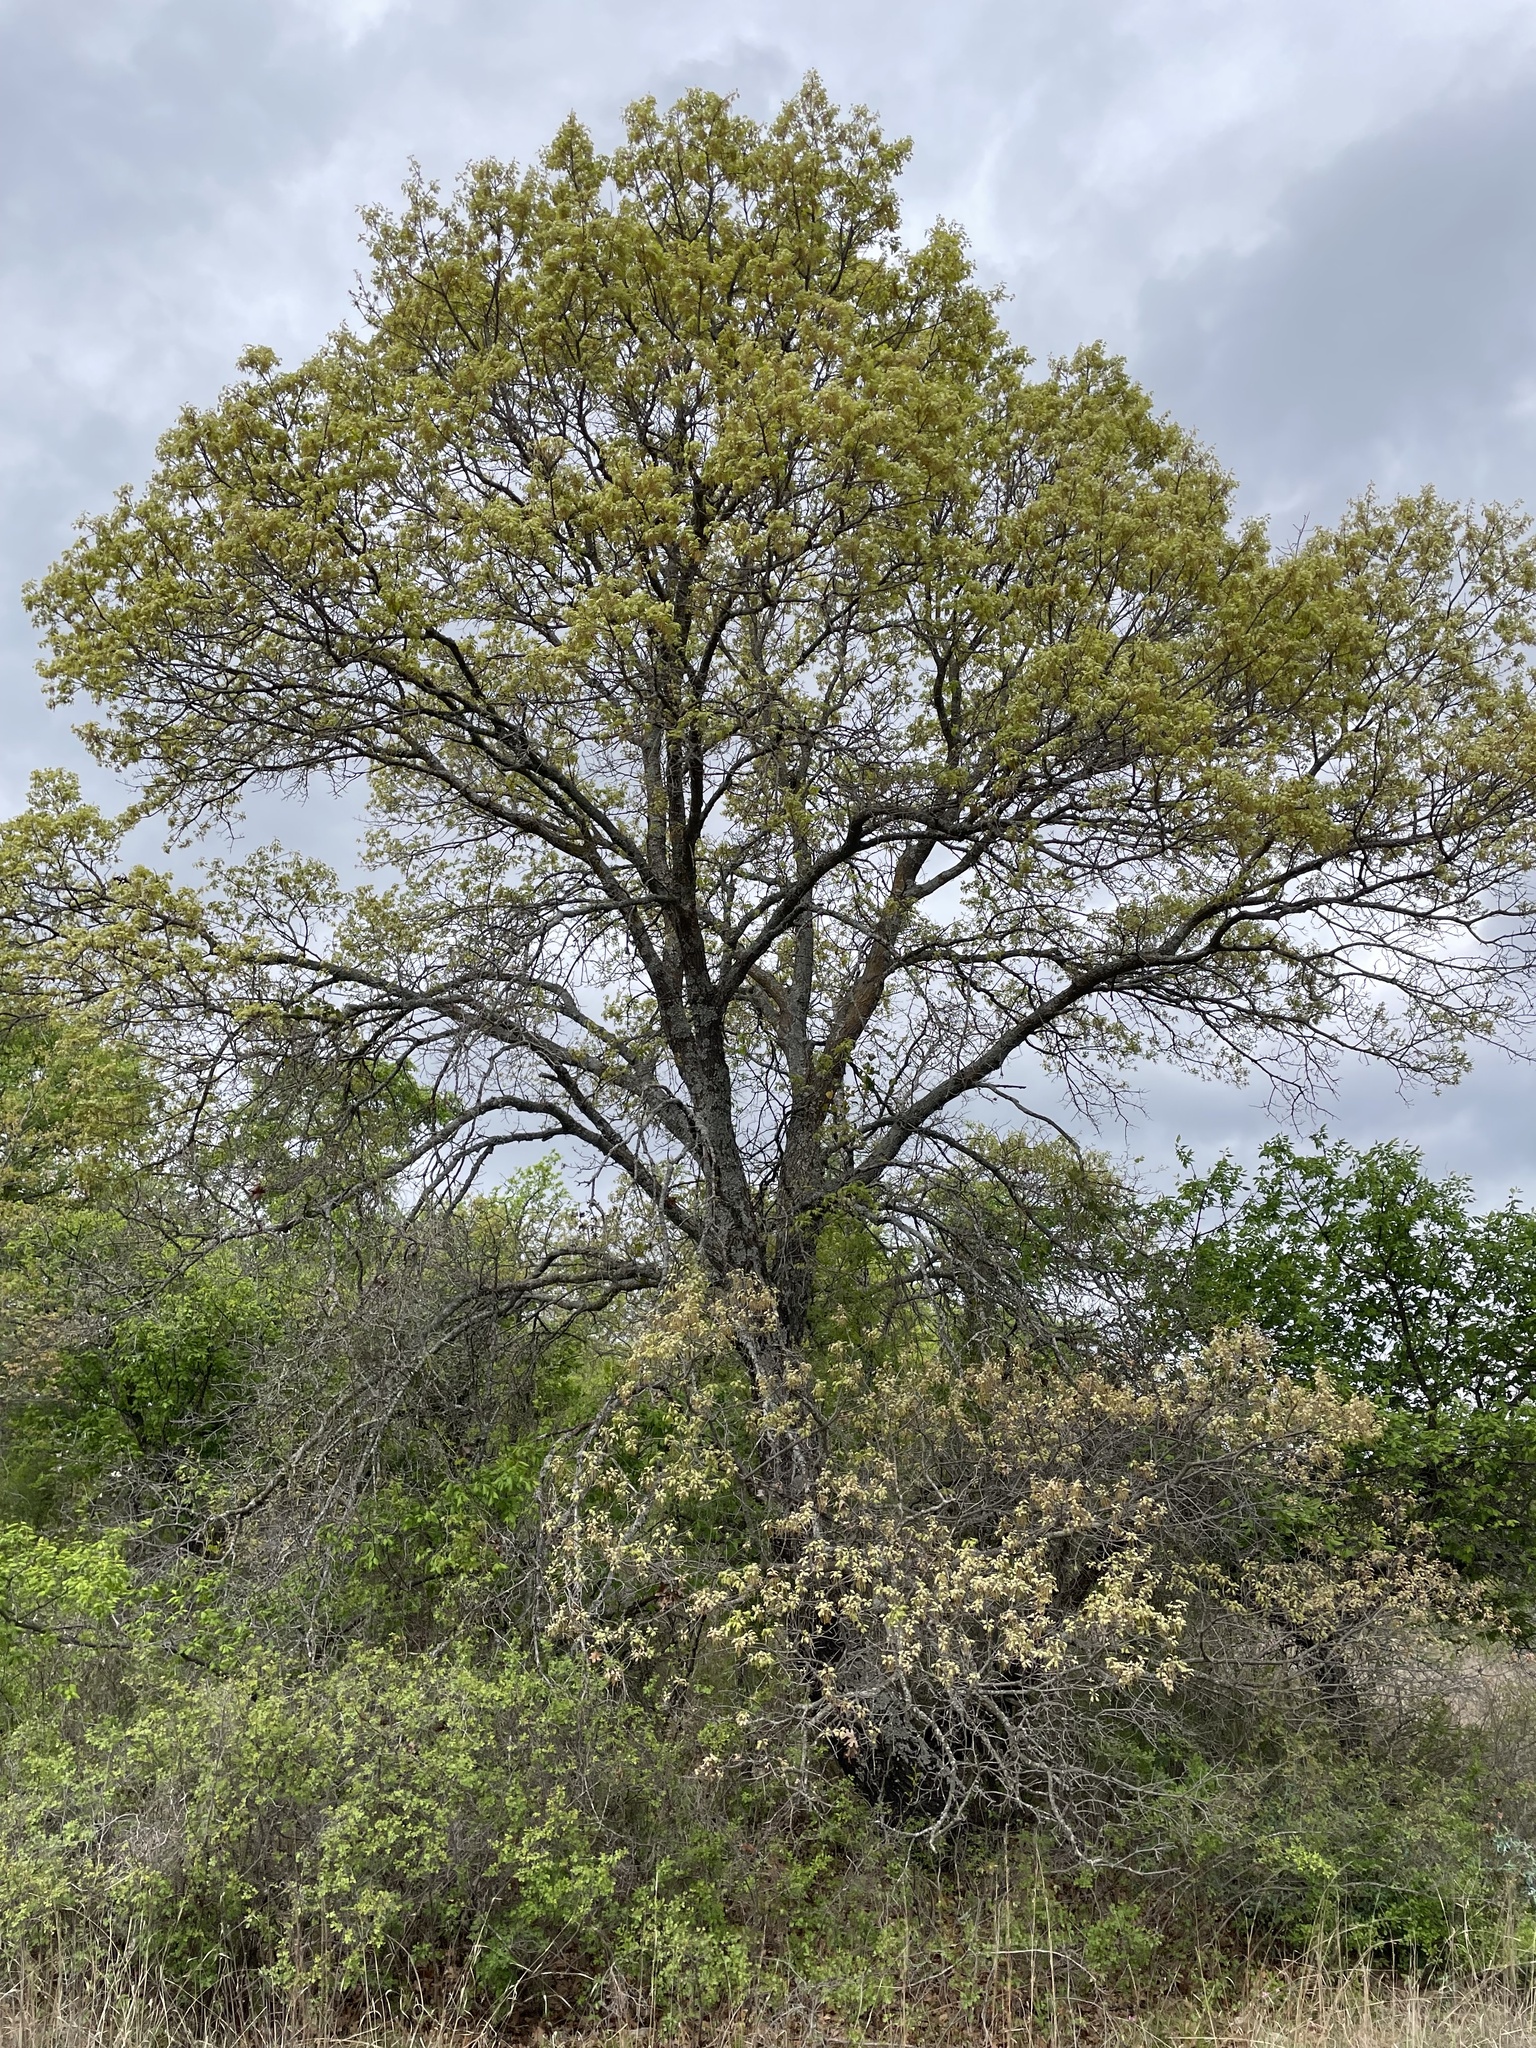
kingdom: Plantae
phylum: Tracheophyta
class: Magnoliopsida
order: Fagales
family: Fagaceae
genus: Quercus
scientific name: Quercus buckleyi
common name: Buckley oak
